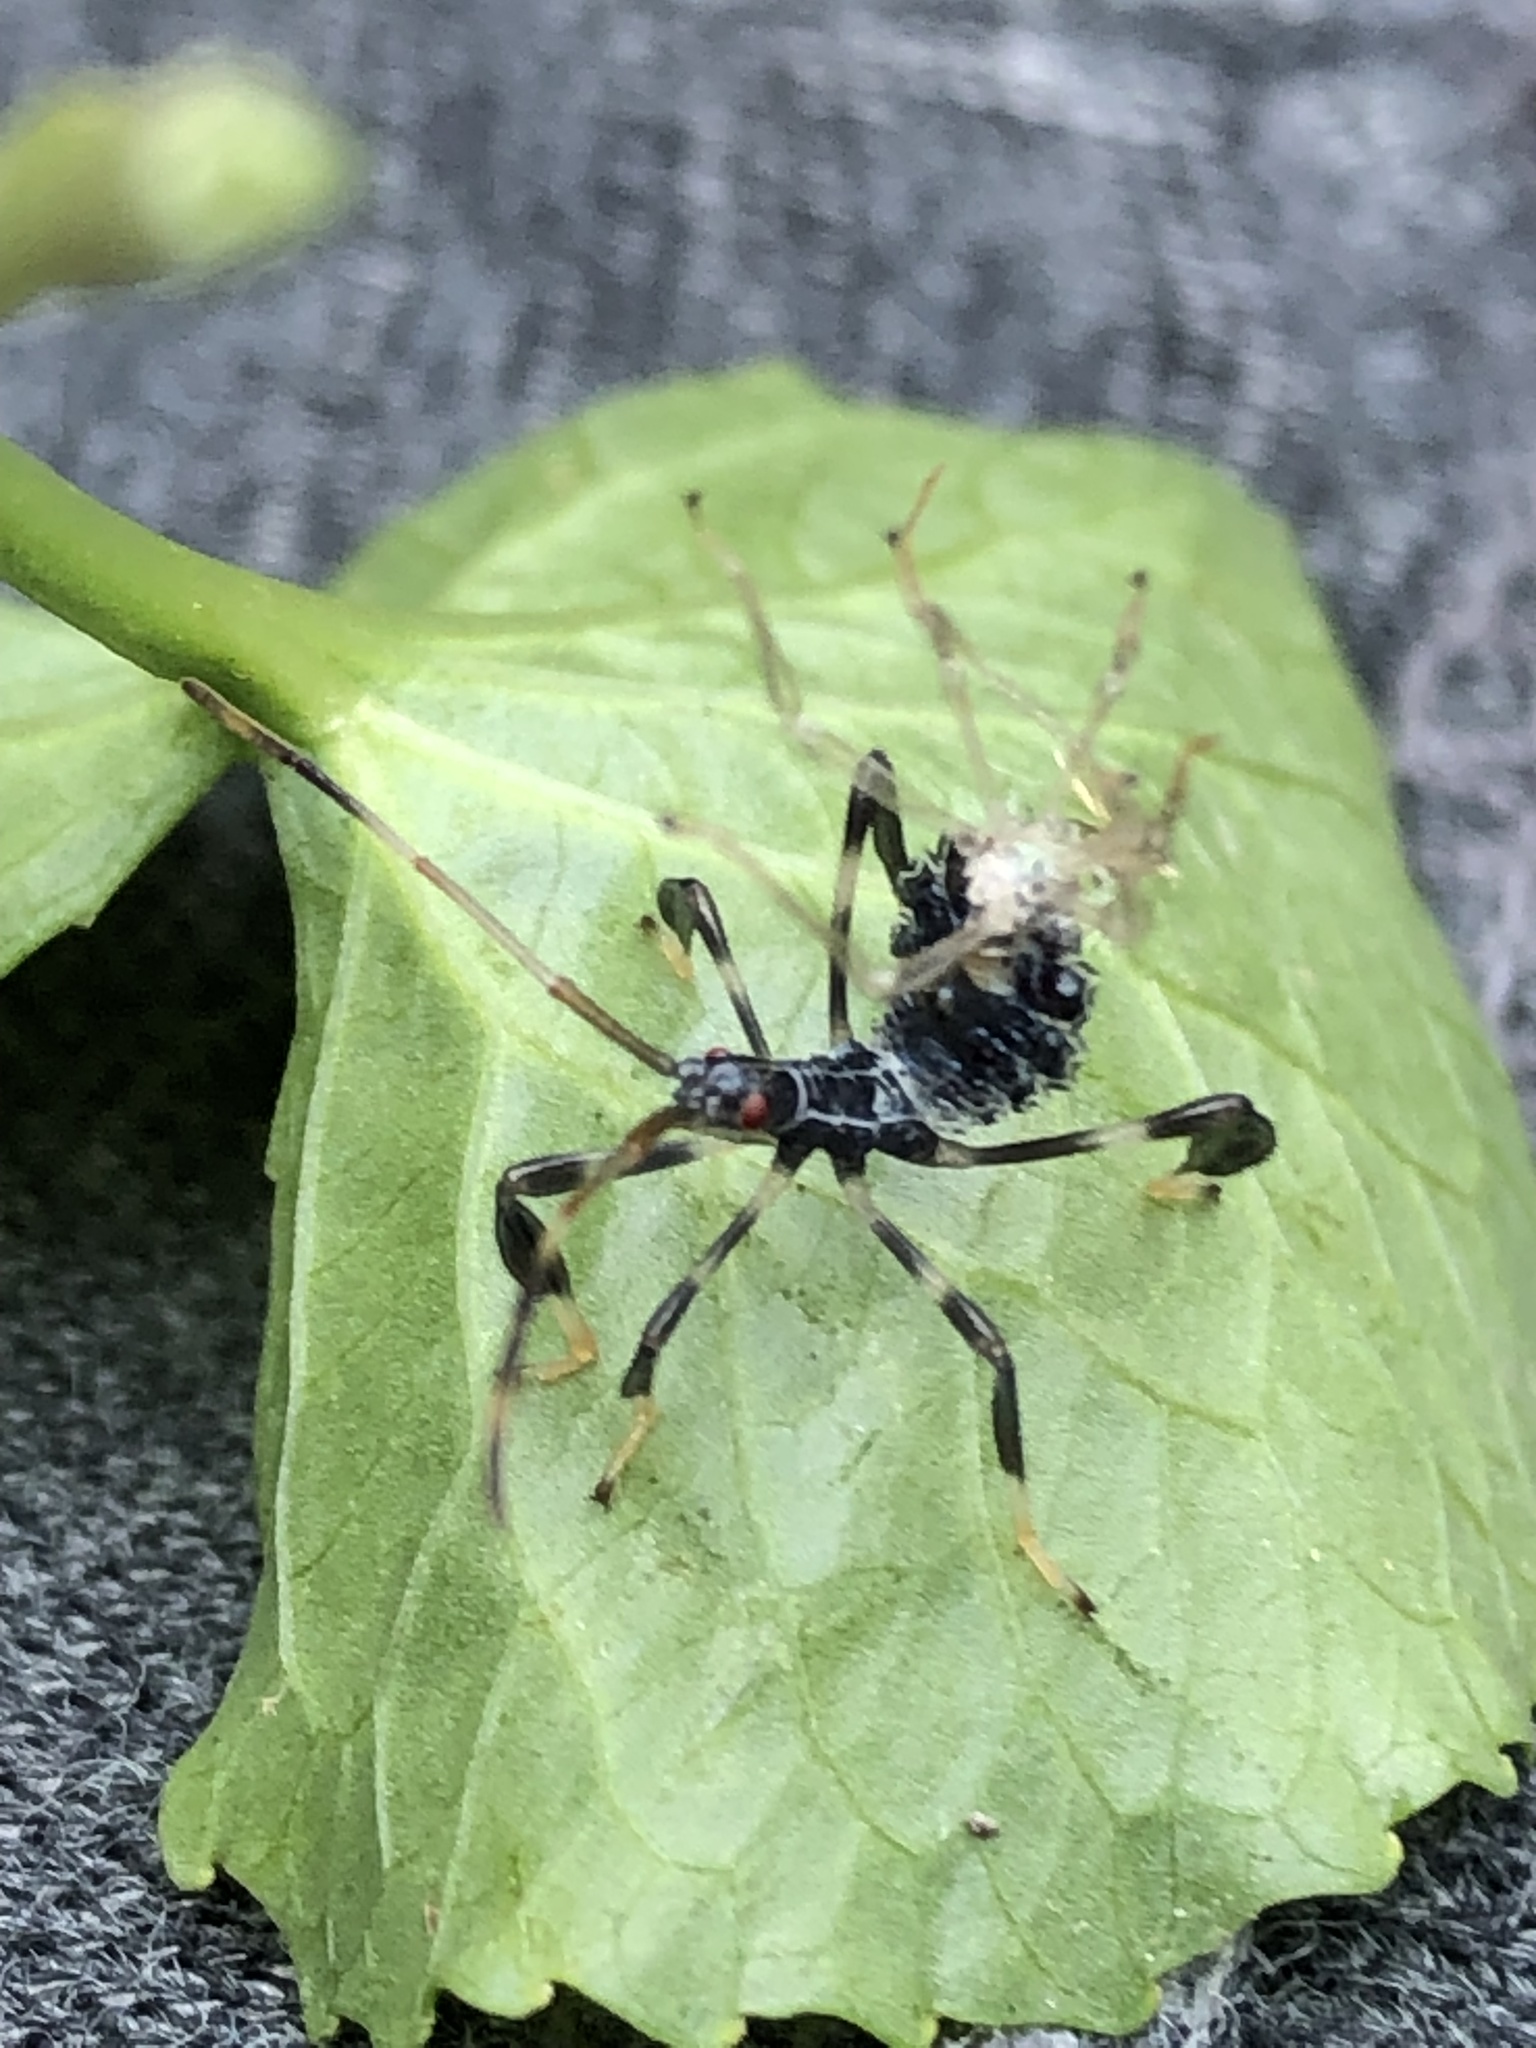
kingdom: Animalia
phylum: Arthropoda
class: Insecta
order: Hemiptera
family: Coreidae
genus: Acanthocephala
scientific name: Acanthocephala terminalis
